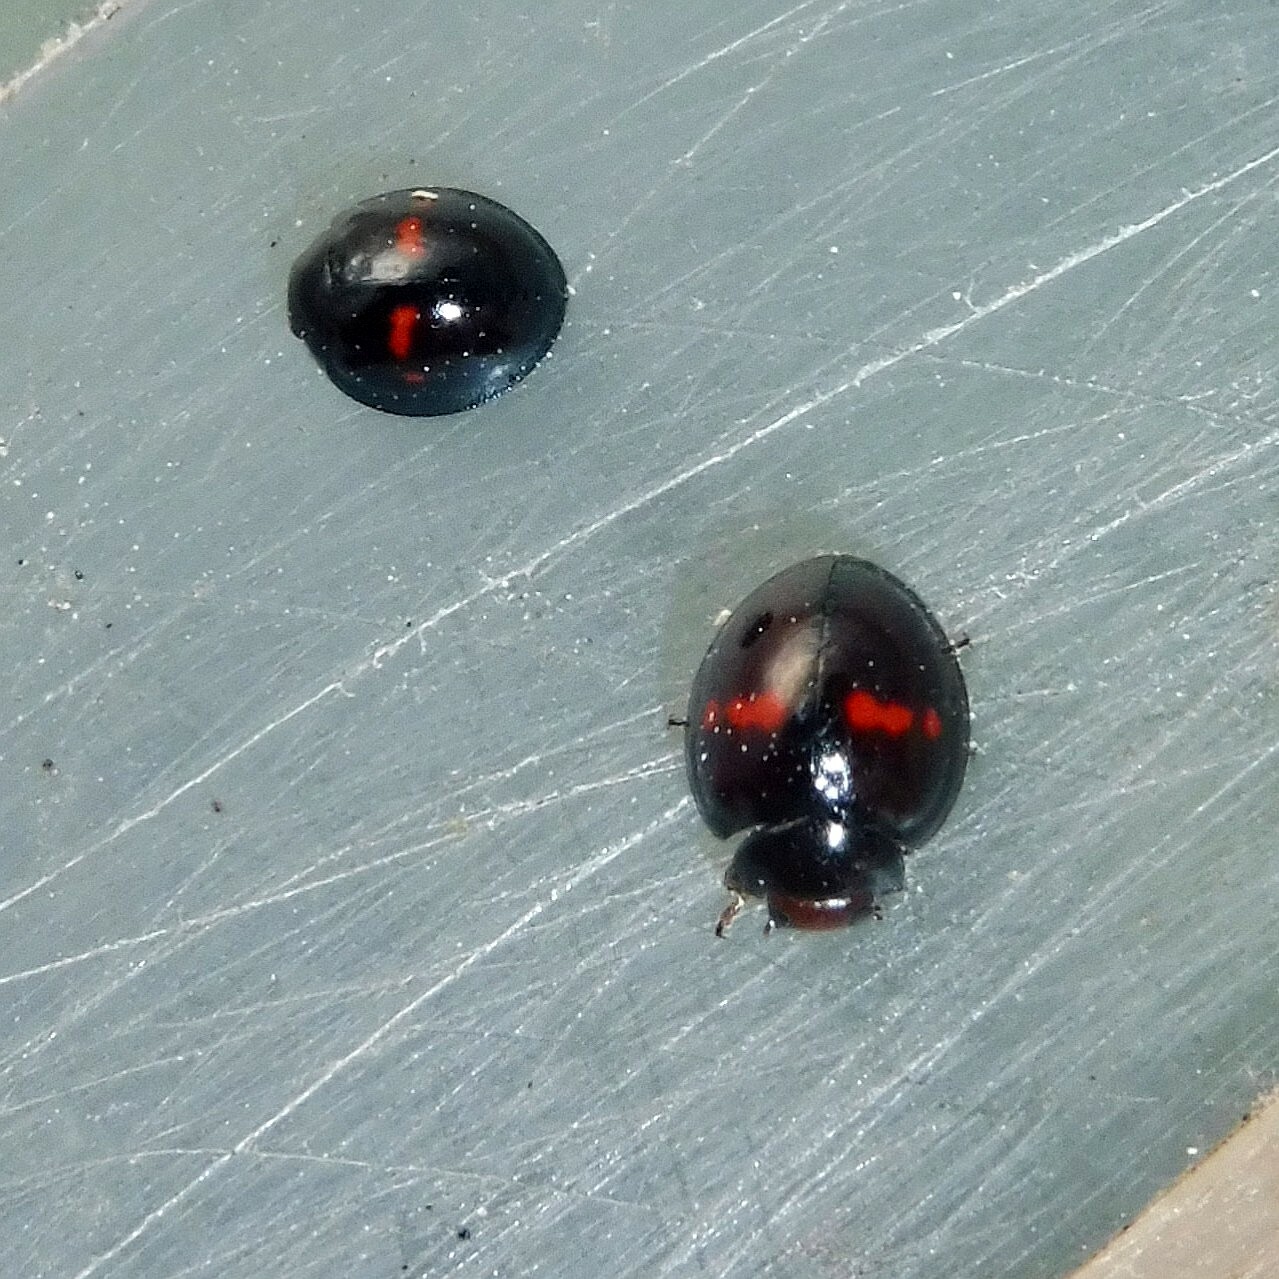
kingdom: Animalia
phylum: Arthropoda
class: Insecta
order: Coleoptera
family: Coccinellidae
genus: Chilocorus
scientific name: Chilocorus bipustulatus
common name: Heather ladybird
